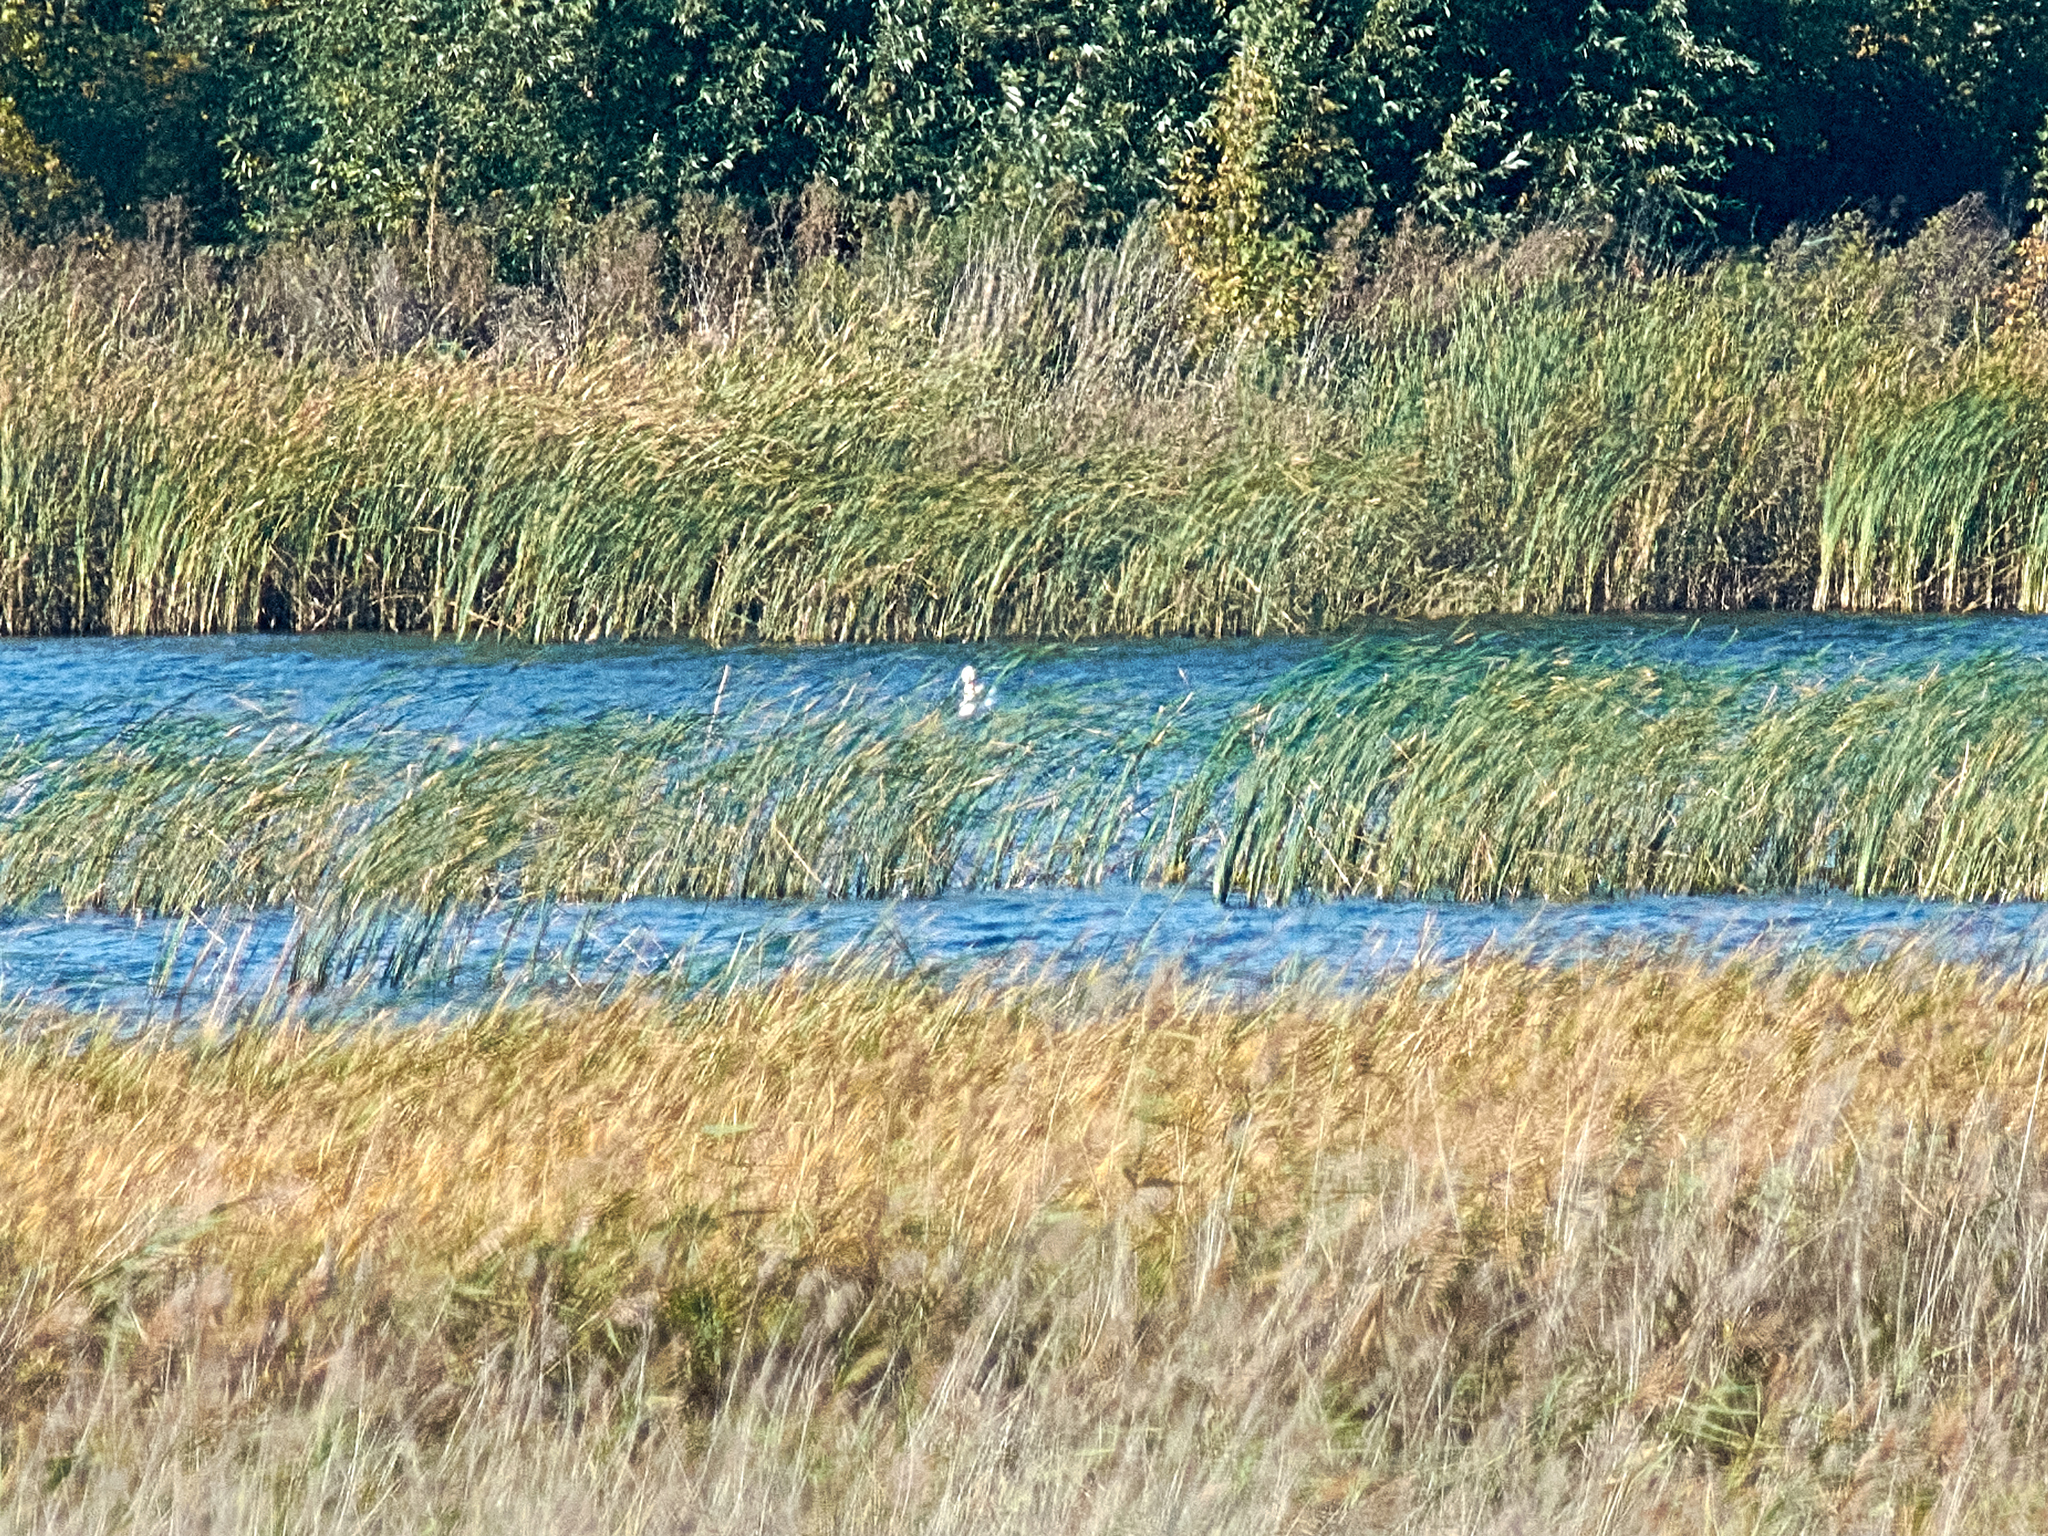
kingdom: Animalia
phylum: Chordata
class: Aves
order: Anseriformes
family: Anatidae
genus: Cygnus
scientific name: Cygnus olor
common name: Mute swan
